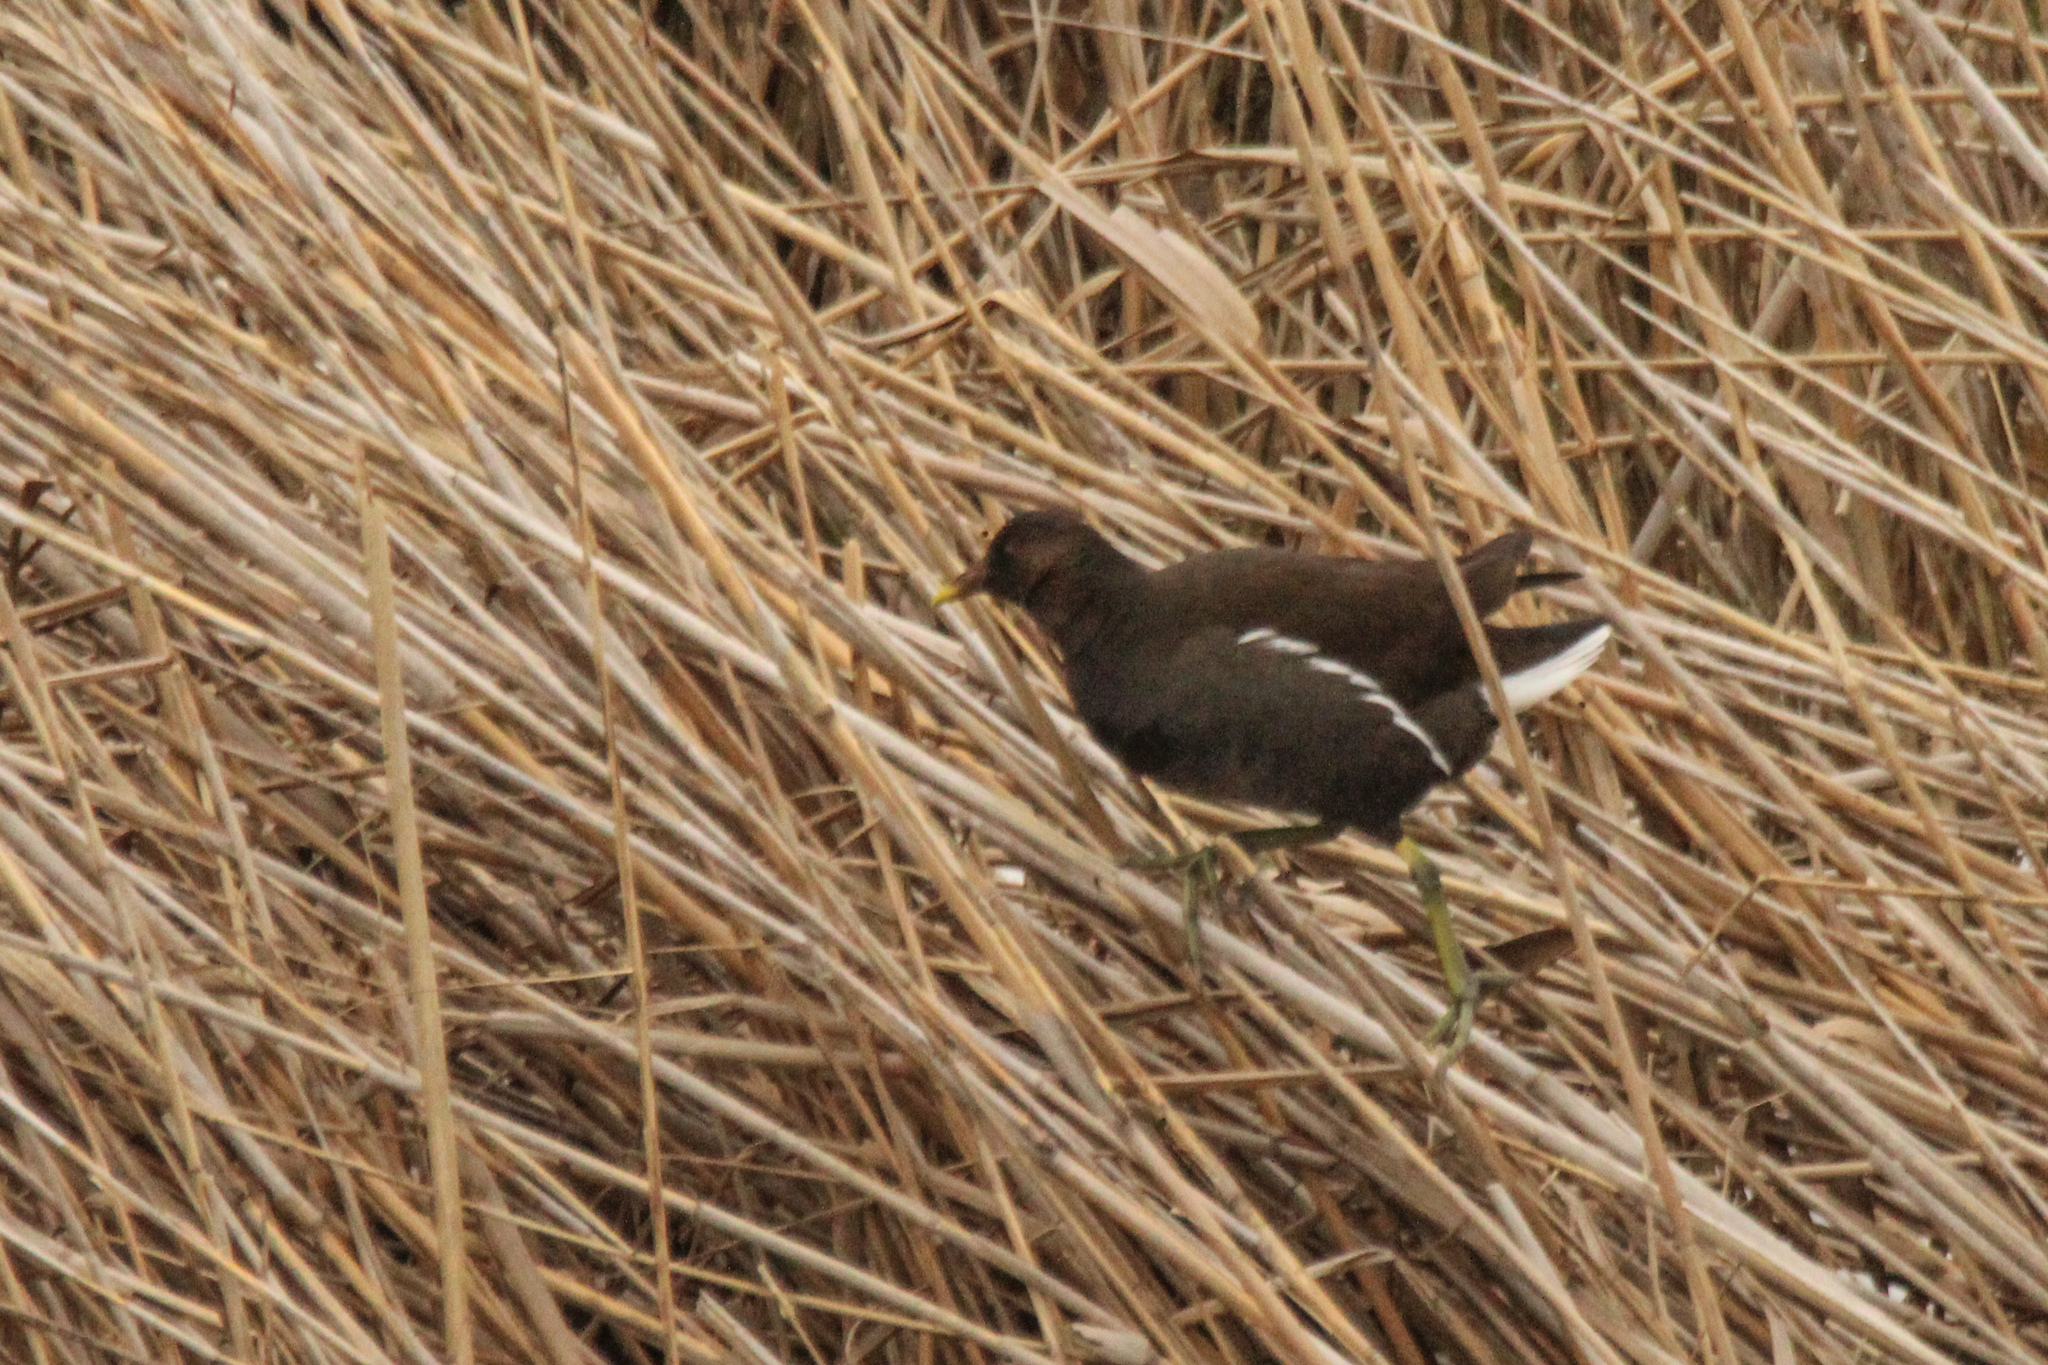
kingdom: Animalia
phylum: Chordata
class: Aves
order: Gruiformes
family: Rallidae
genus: Gallinula
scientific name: Gallinula chloropus
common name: Common moorhen
